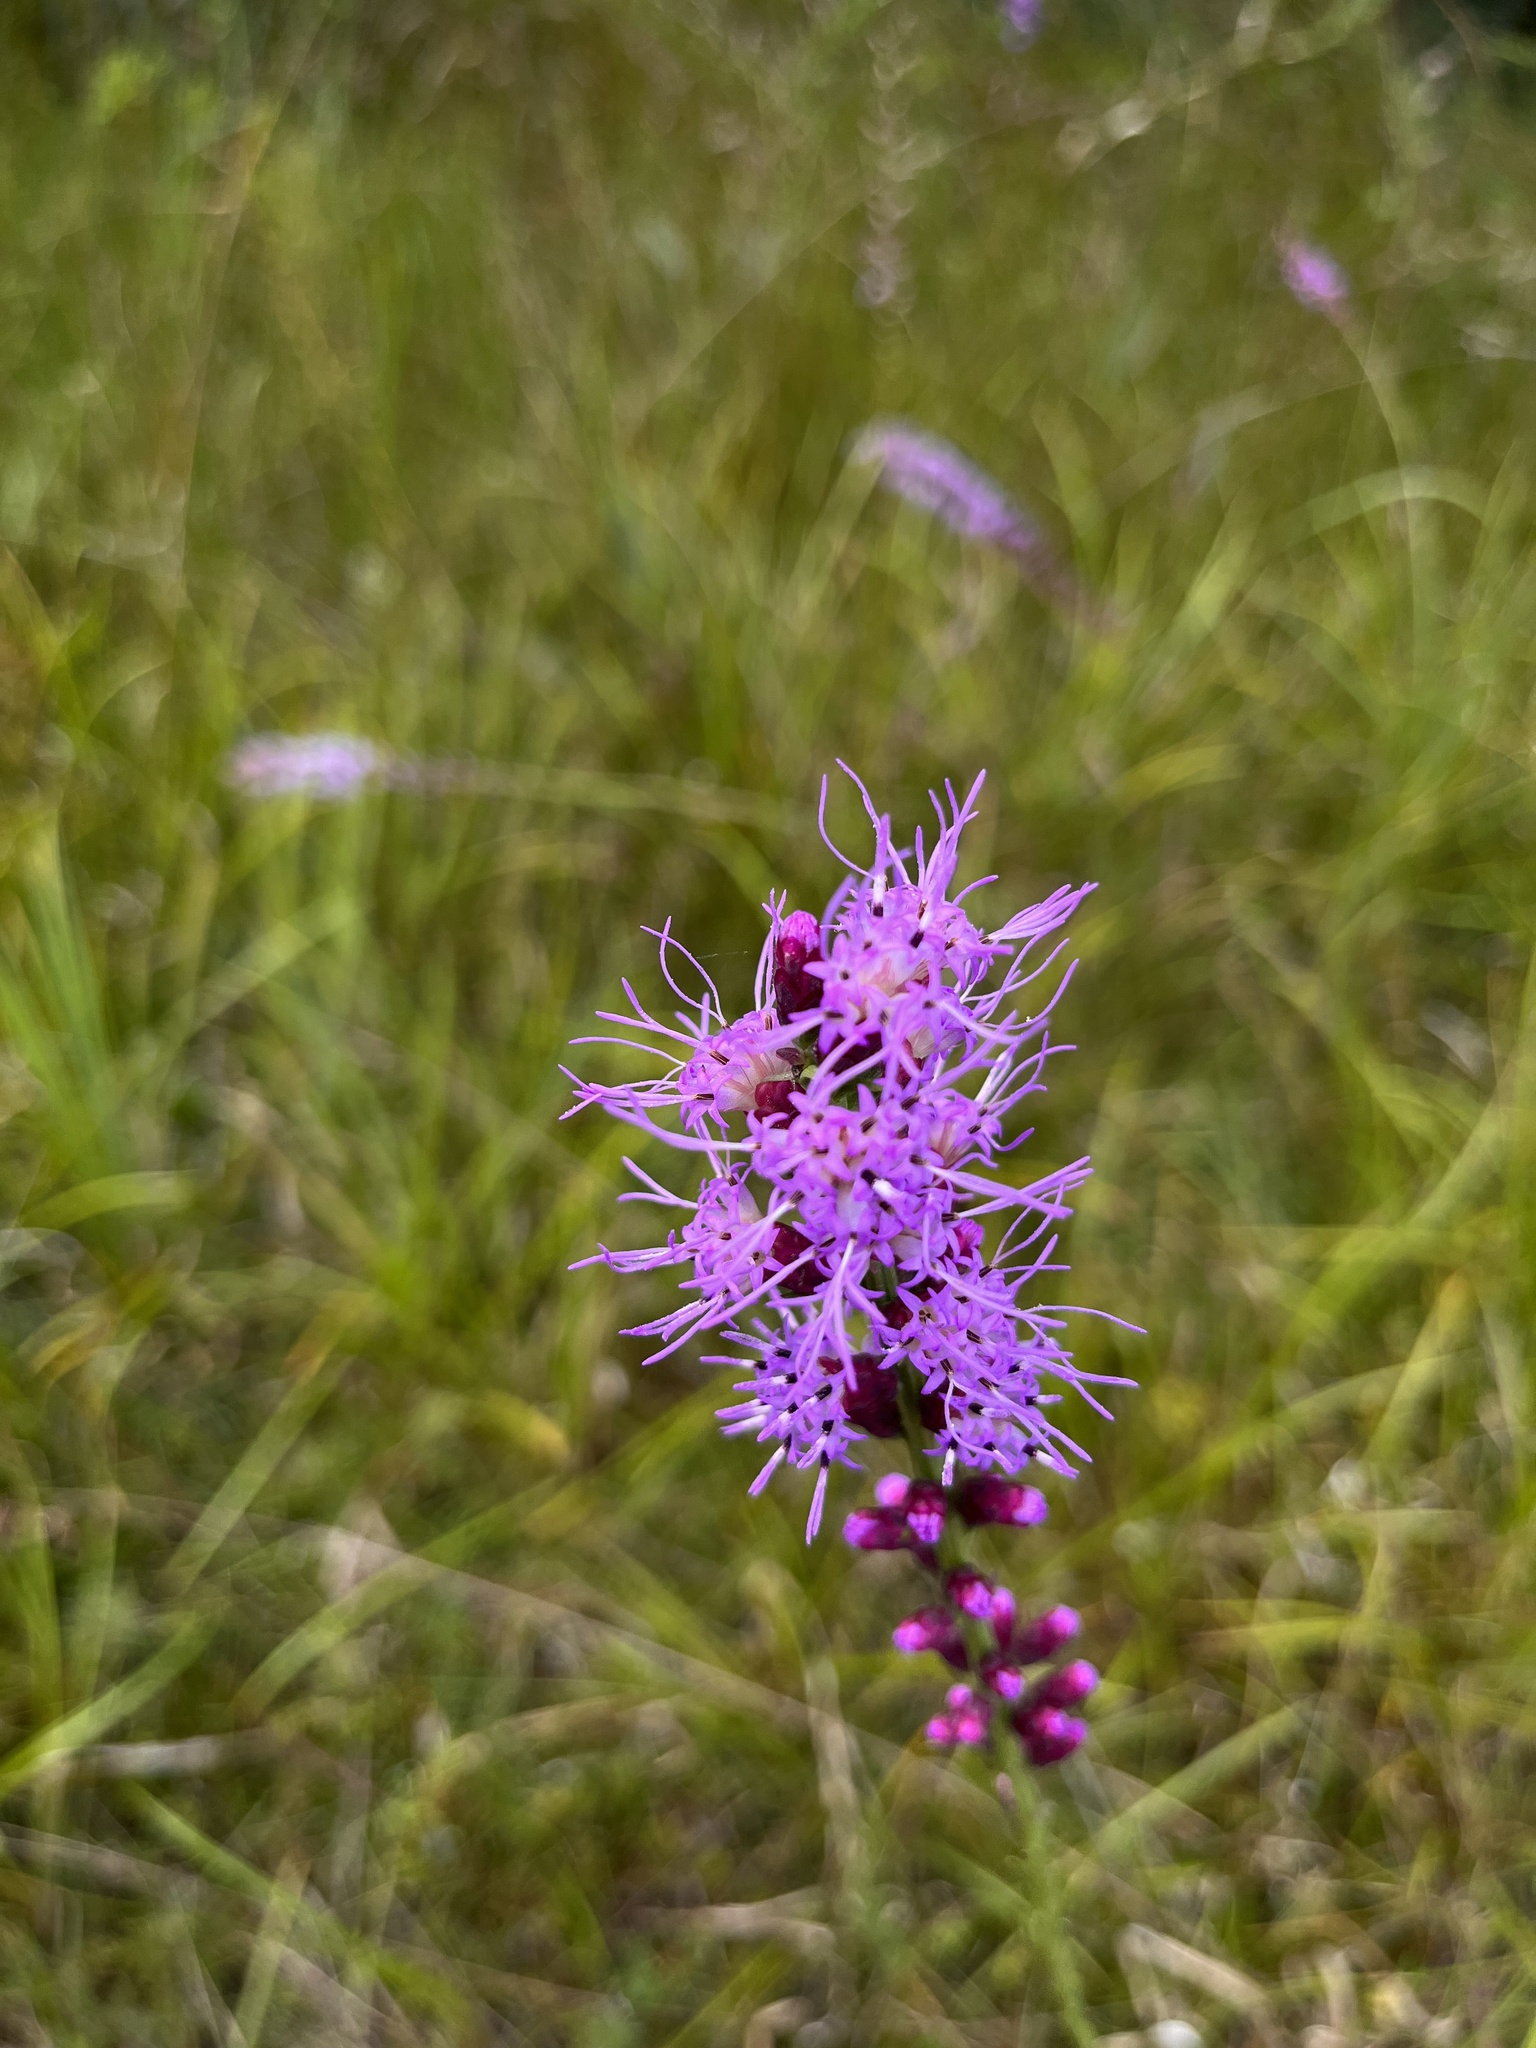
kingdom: Plantae
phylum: Tracheophyta
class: Magnoliopsida
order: Asterales
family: Asteraceae
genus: Liatris
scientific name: Liatris spicata
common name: Florist gayfeather
